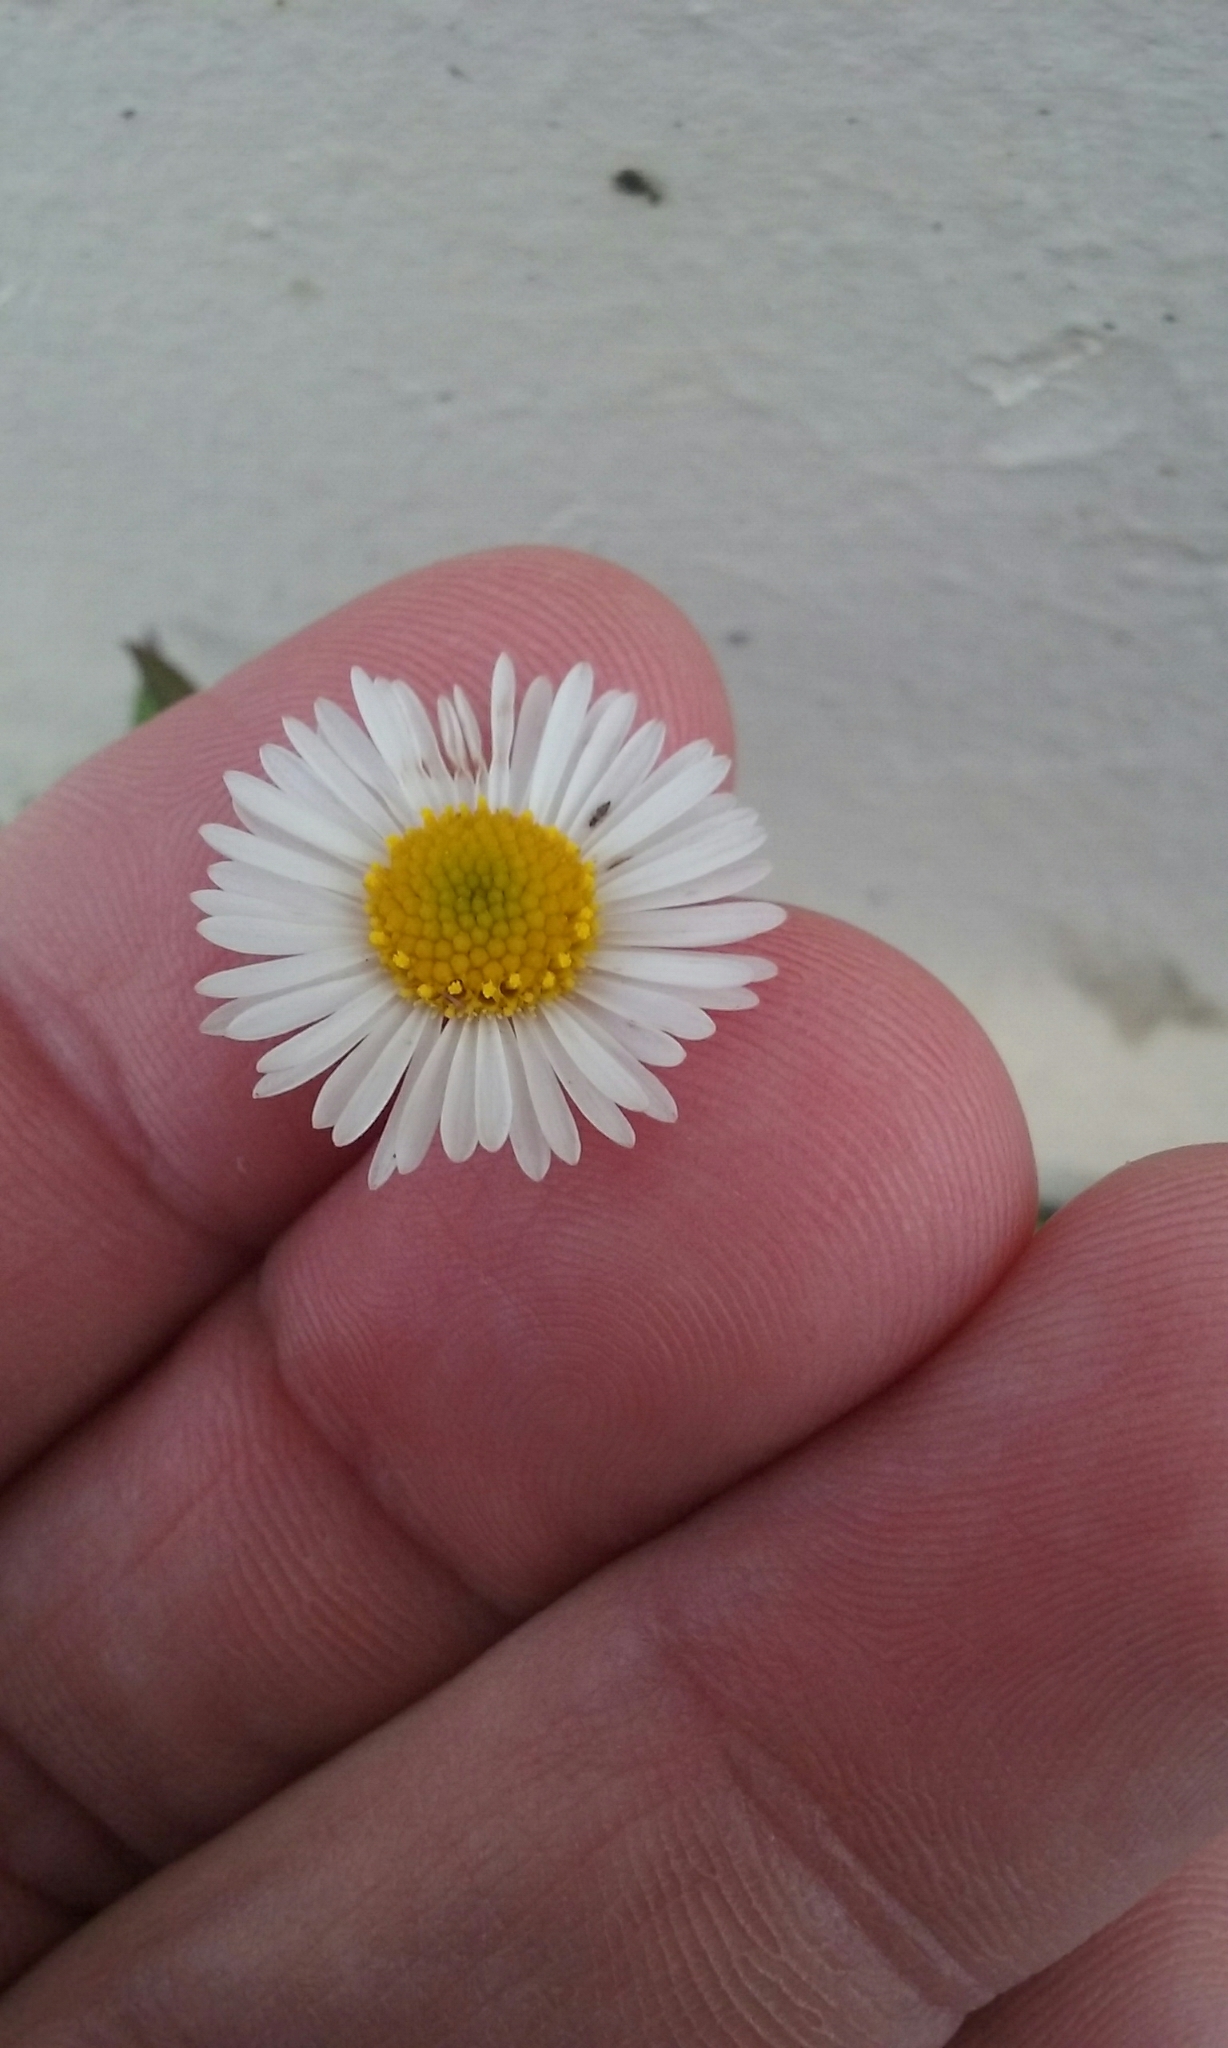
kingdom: Plantae
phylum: Tracheophyta
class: Magnoliopsida
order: Asterales
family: Asteraceae
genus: Erigeron
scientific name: Erigeron karvinskianus
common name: Mexican fleabane
